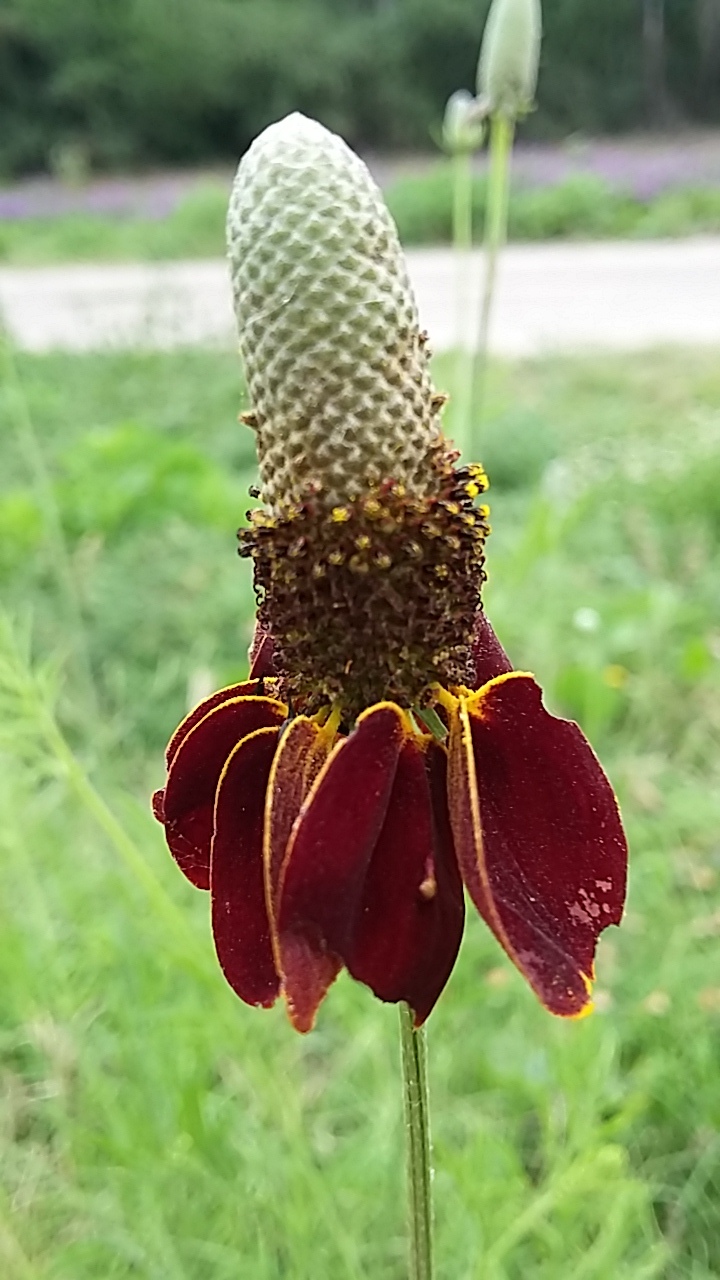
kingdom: Plantae
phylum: Tracheophyta
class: Magnoliopsida
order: Asterales
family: Asteraceae
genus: Ratibida
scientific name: Ratibida columnifera
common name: Prairie coneflower
